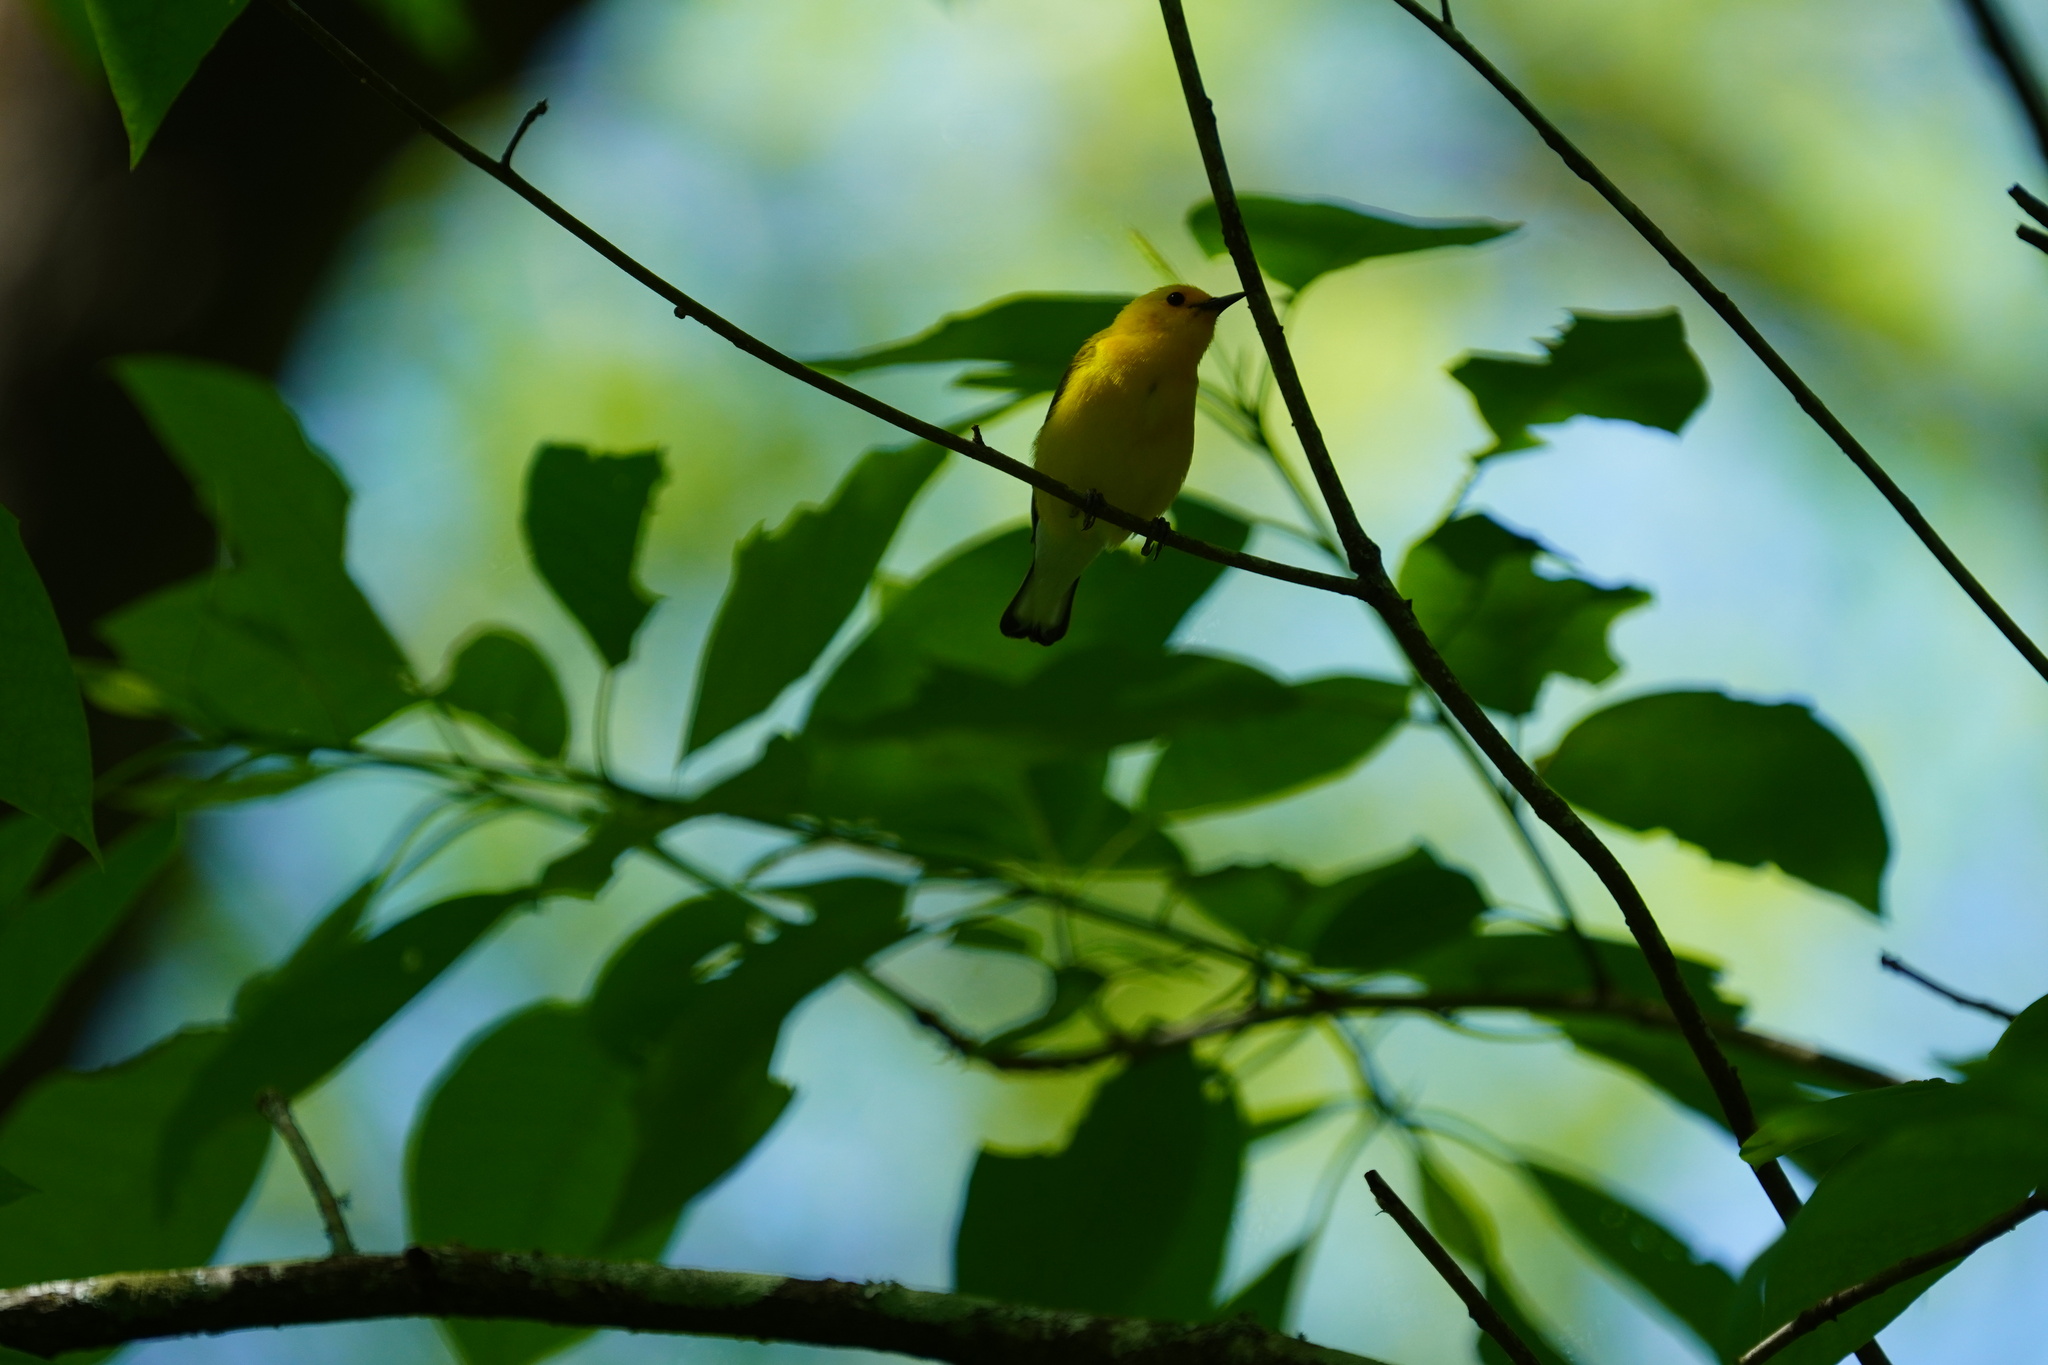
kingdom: Animalia
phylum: Chordata
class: Aves
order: Passeriformes
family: Parulidae
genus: Protonotaria
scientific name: Protonotaria citrea
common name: Prothonotary warbler
